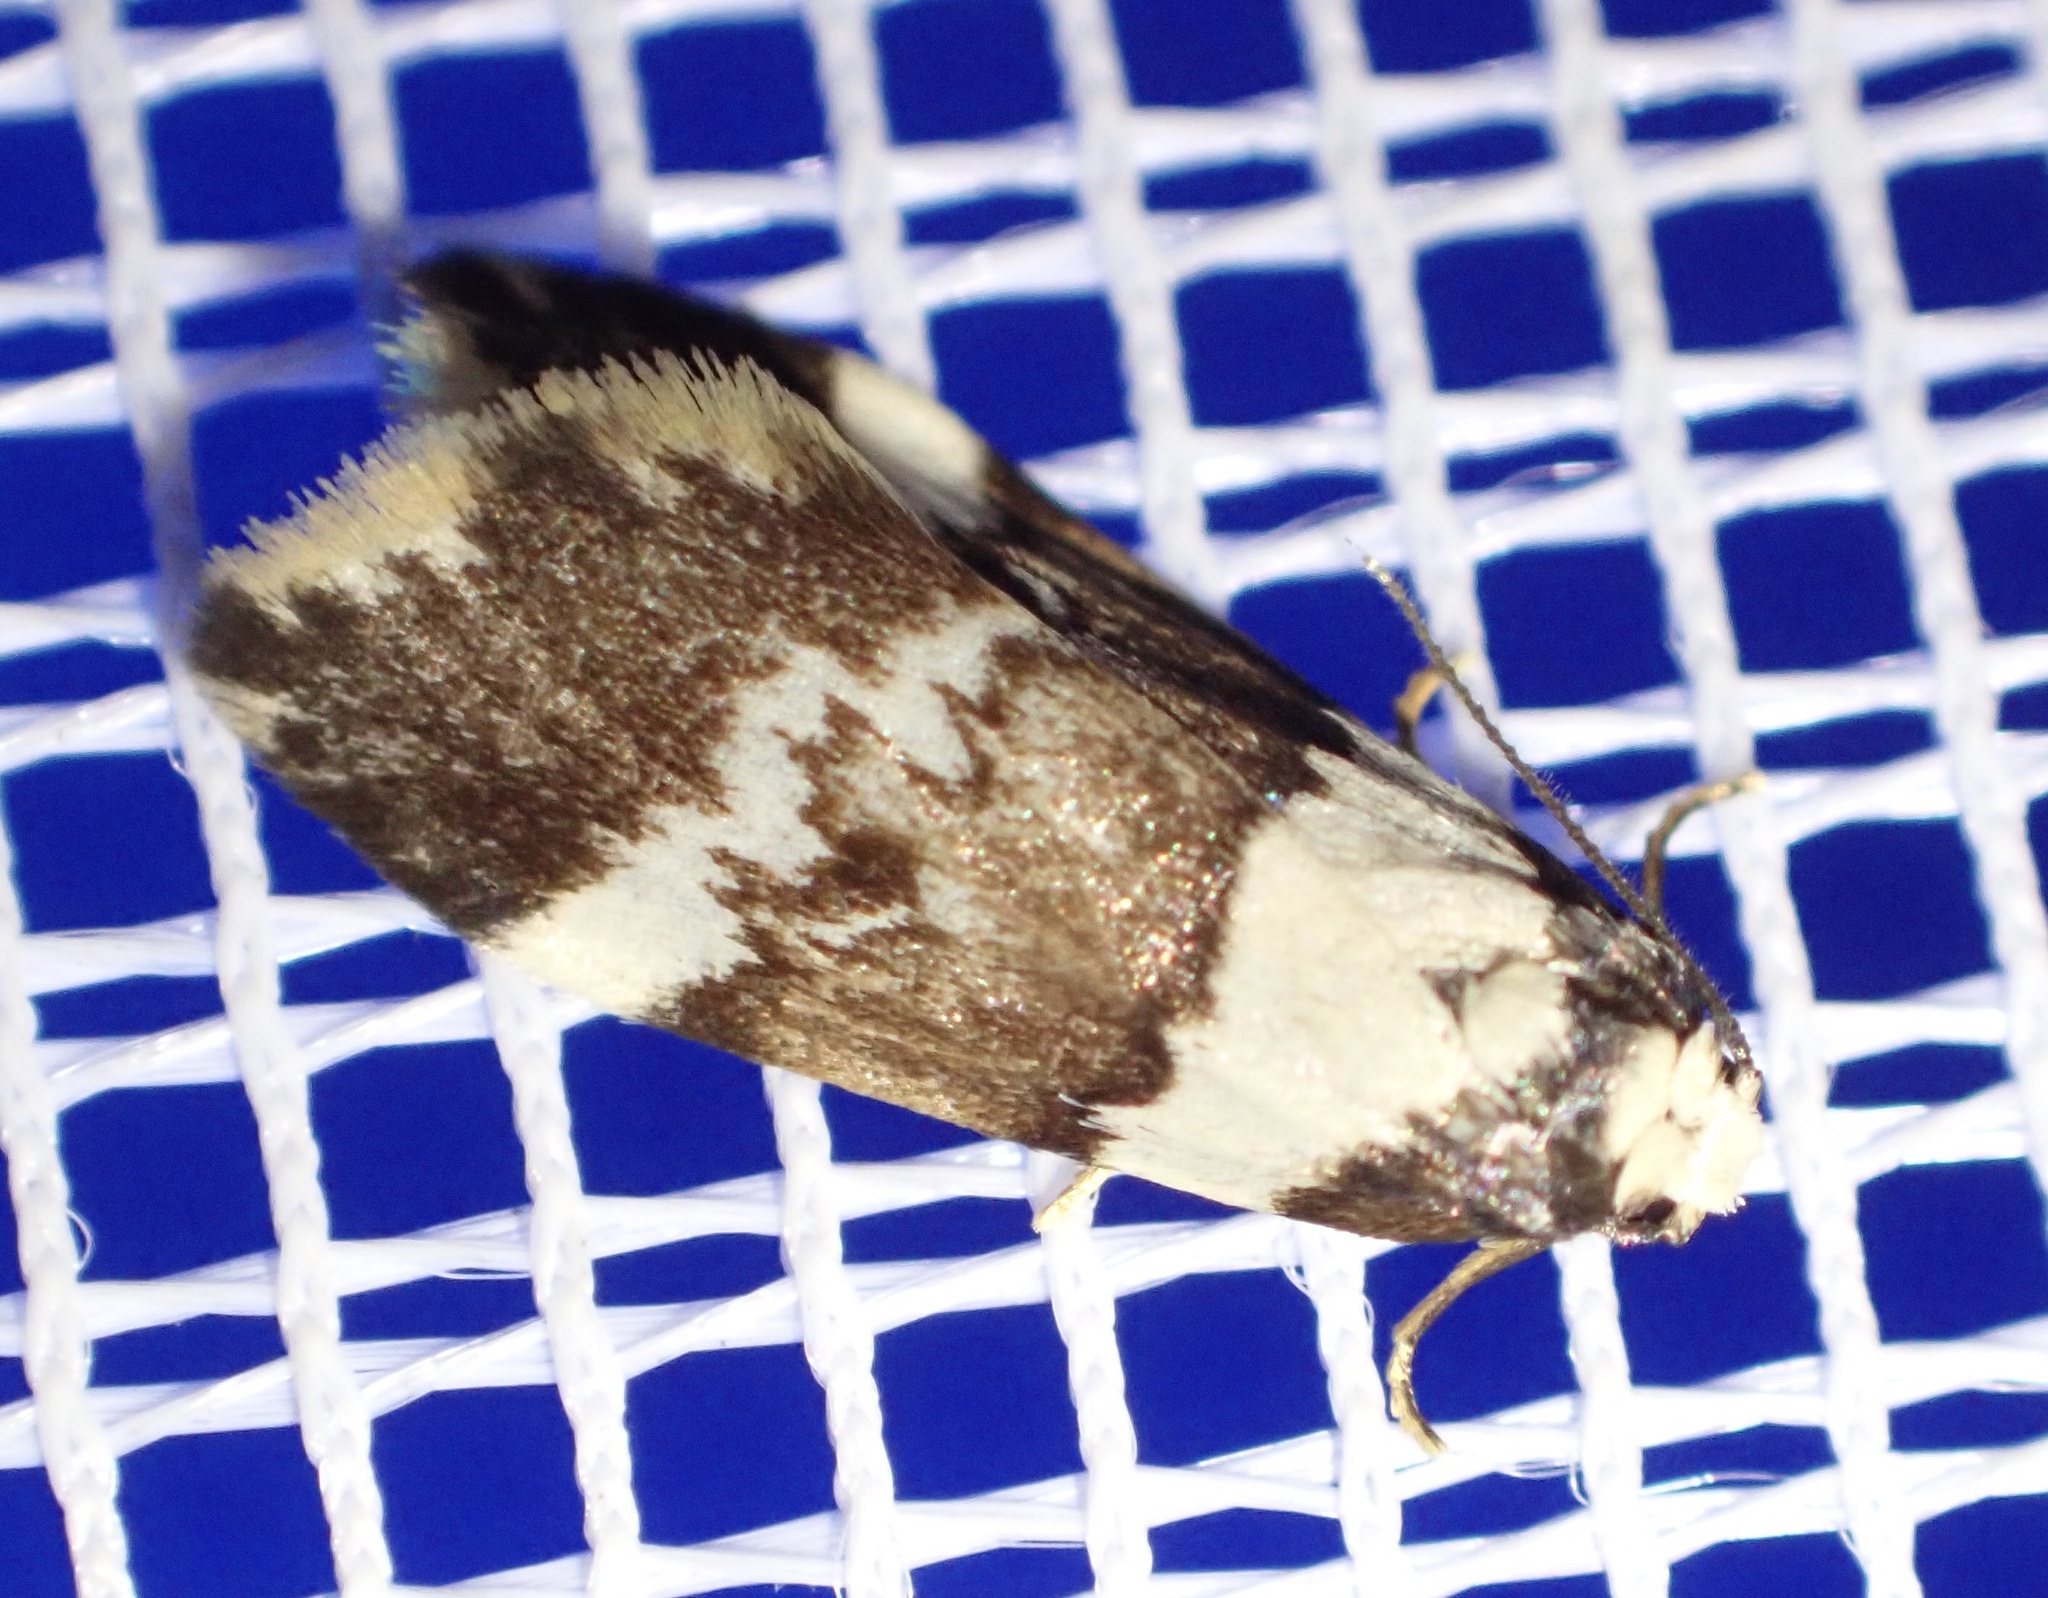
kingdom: Animalia
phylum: Arthropoda
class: Insecta
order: Lepidoptera
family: Erebidae
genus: Halone
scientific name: Halone sejuncta
